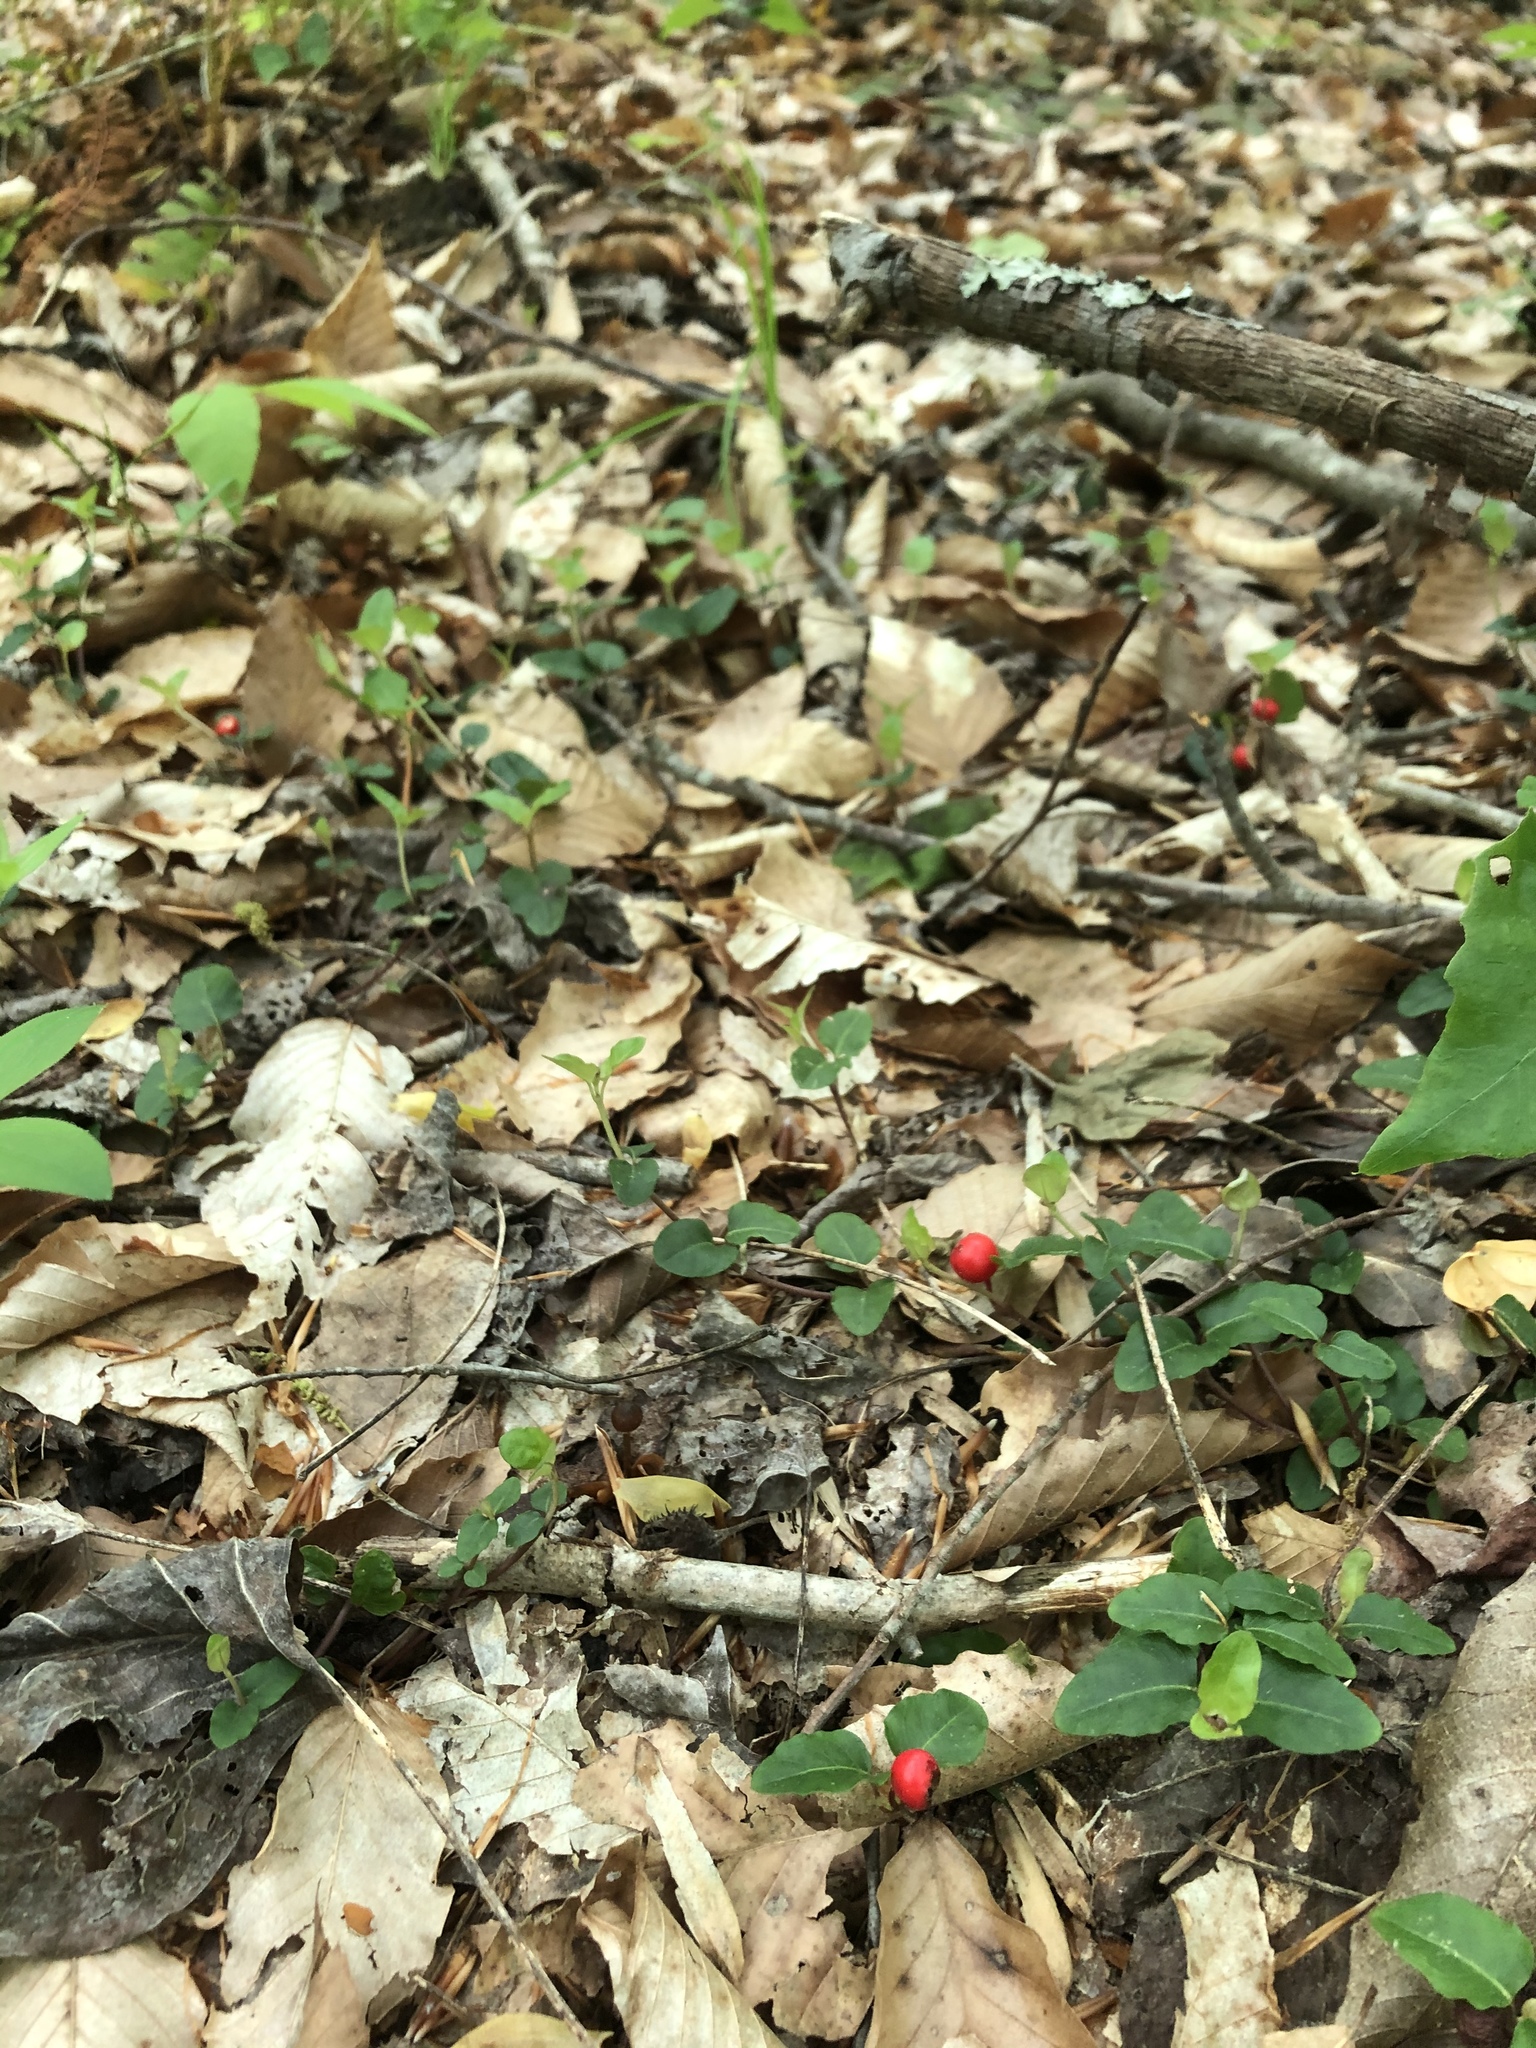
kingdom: Plantae
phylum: Tracheophyta
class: Magnoliopsida
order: Gentianales
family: Rubiaceae
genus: Mitchella
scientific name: Mitchella repens
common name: Partridge-berry
